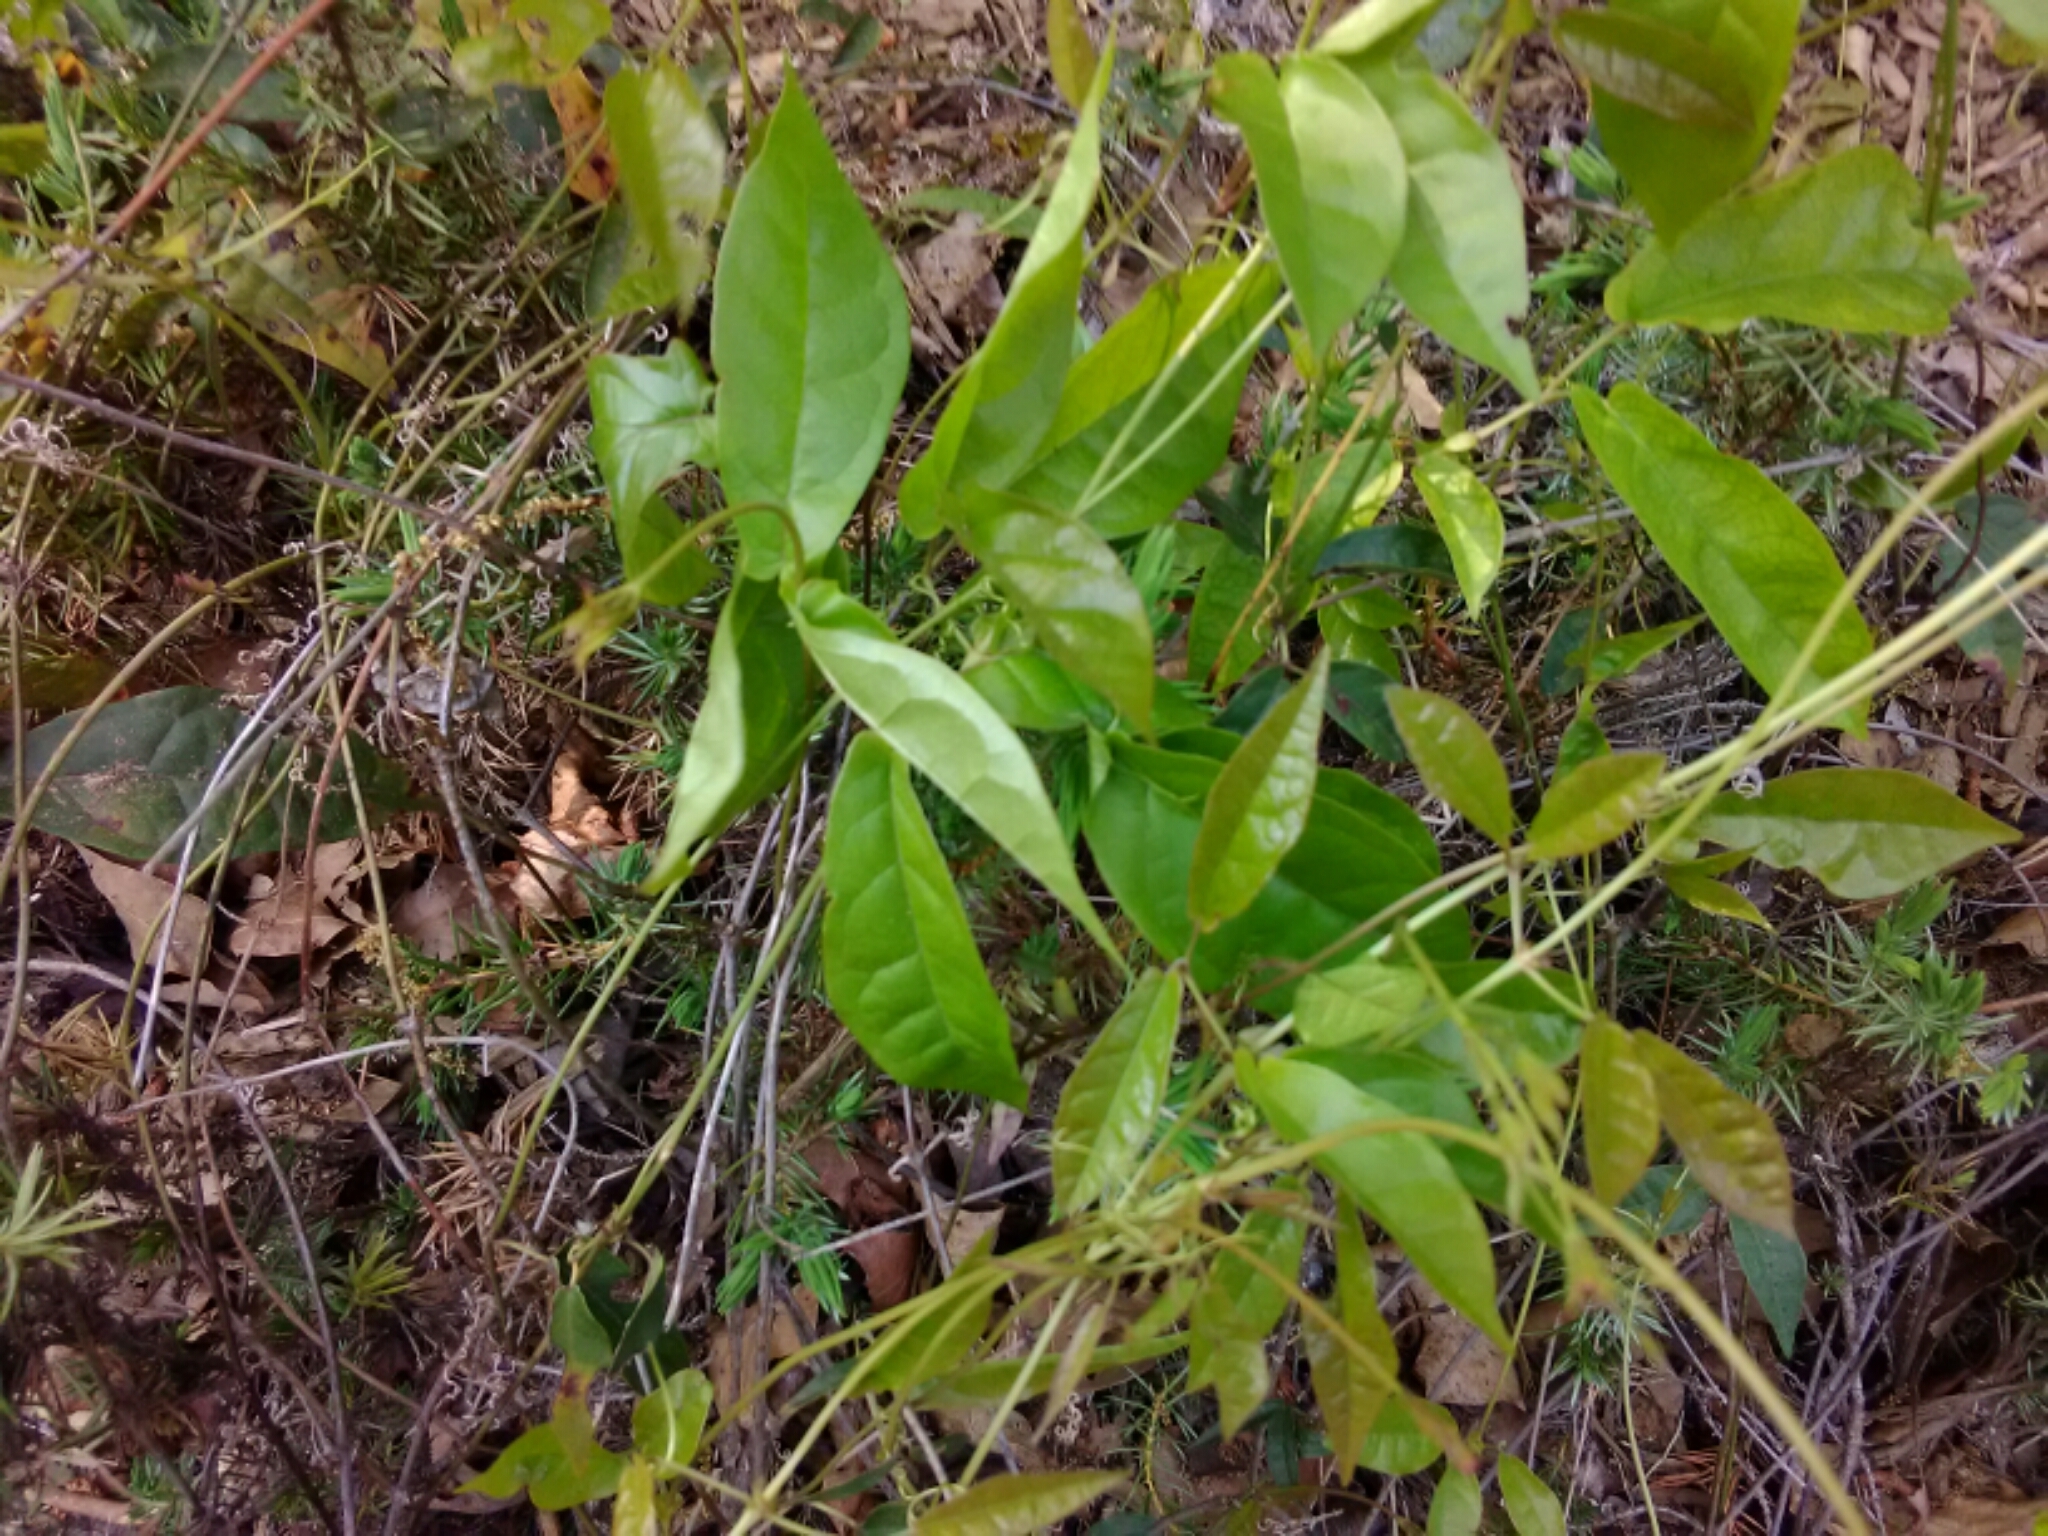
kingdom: Plantae
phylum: Tracheophyta
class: Magnoliopsida
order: Lamiales
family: Bignoniaceae
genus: Bignonia
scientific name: Bignonia capreolata
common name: Crossvine
